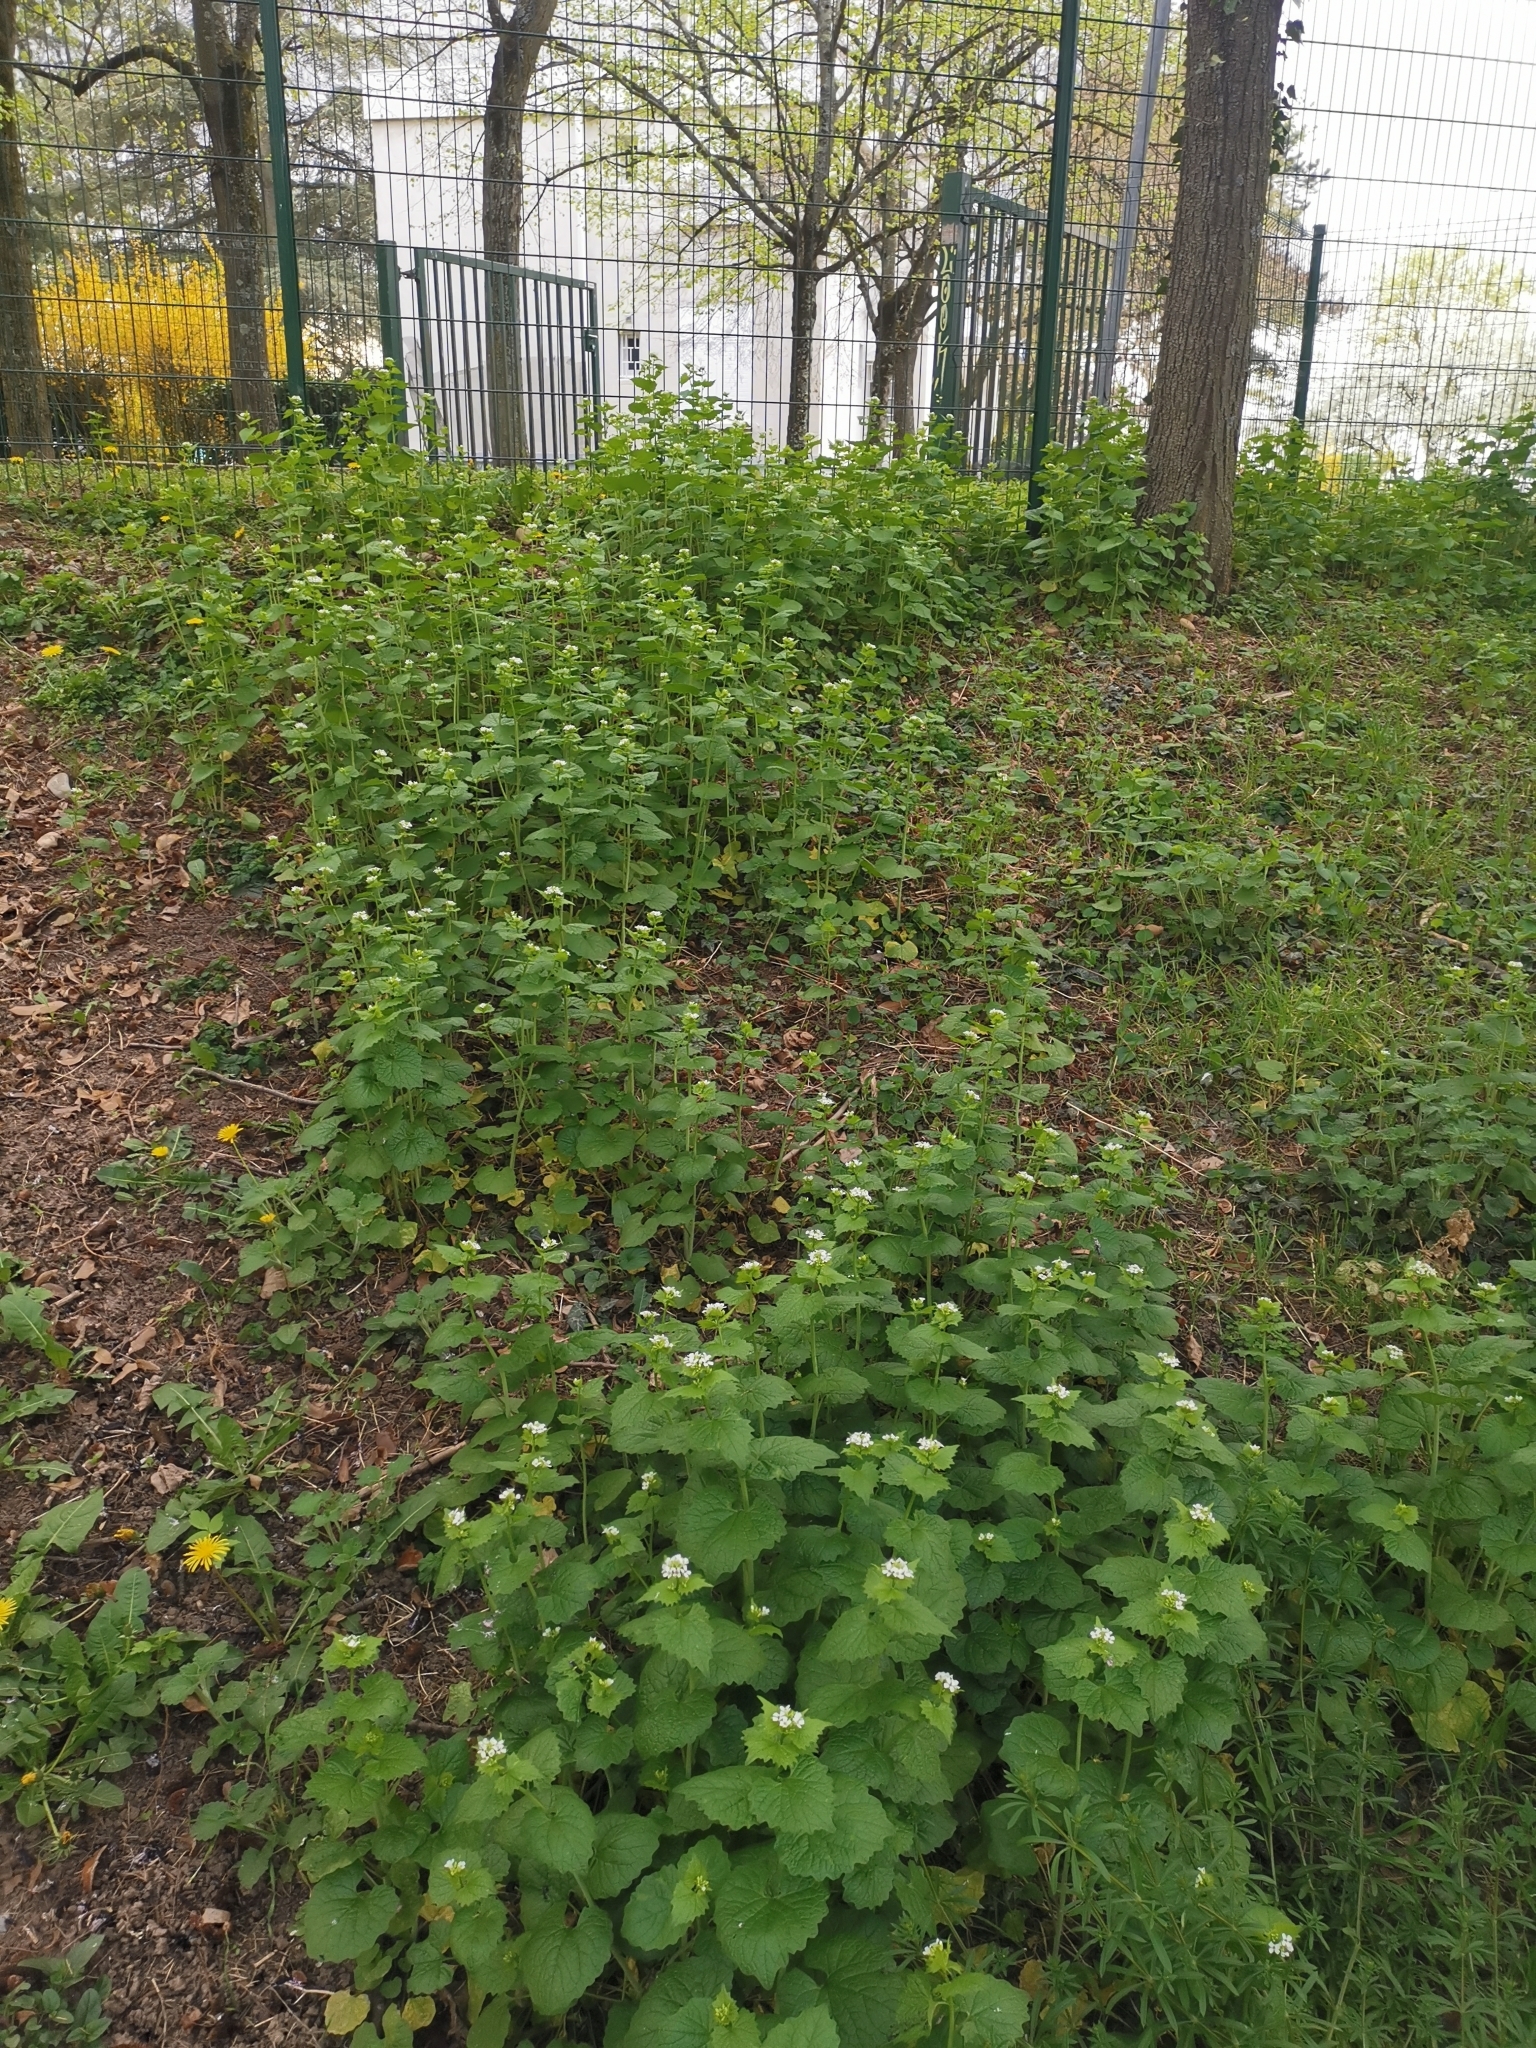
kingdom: Plantae
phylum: Tracheophyta
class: Magnoliopsida
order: Brassicales
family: Brassicaceae
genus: Alliaria
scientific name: Alliaria petiolata
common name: Garlic mustard
